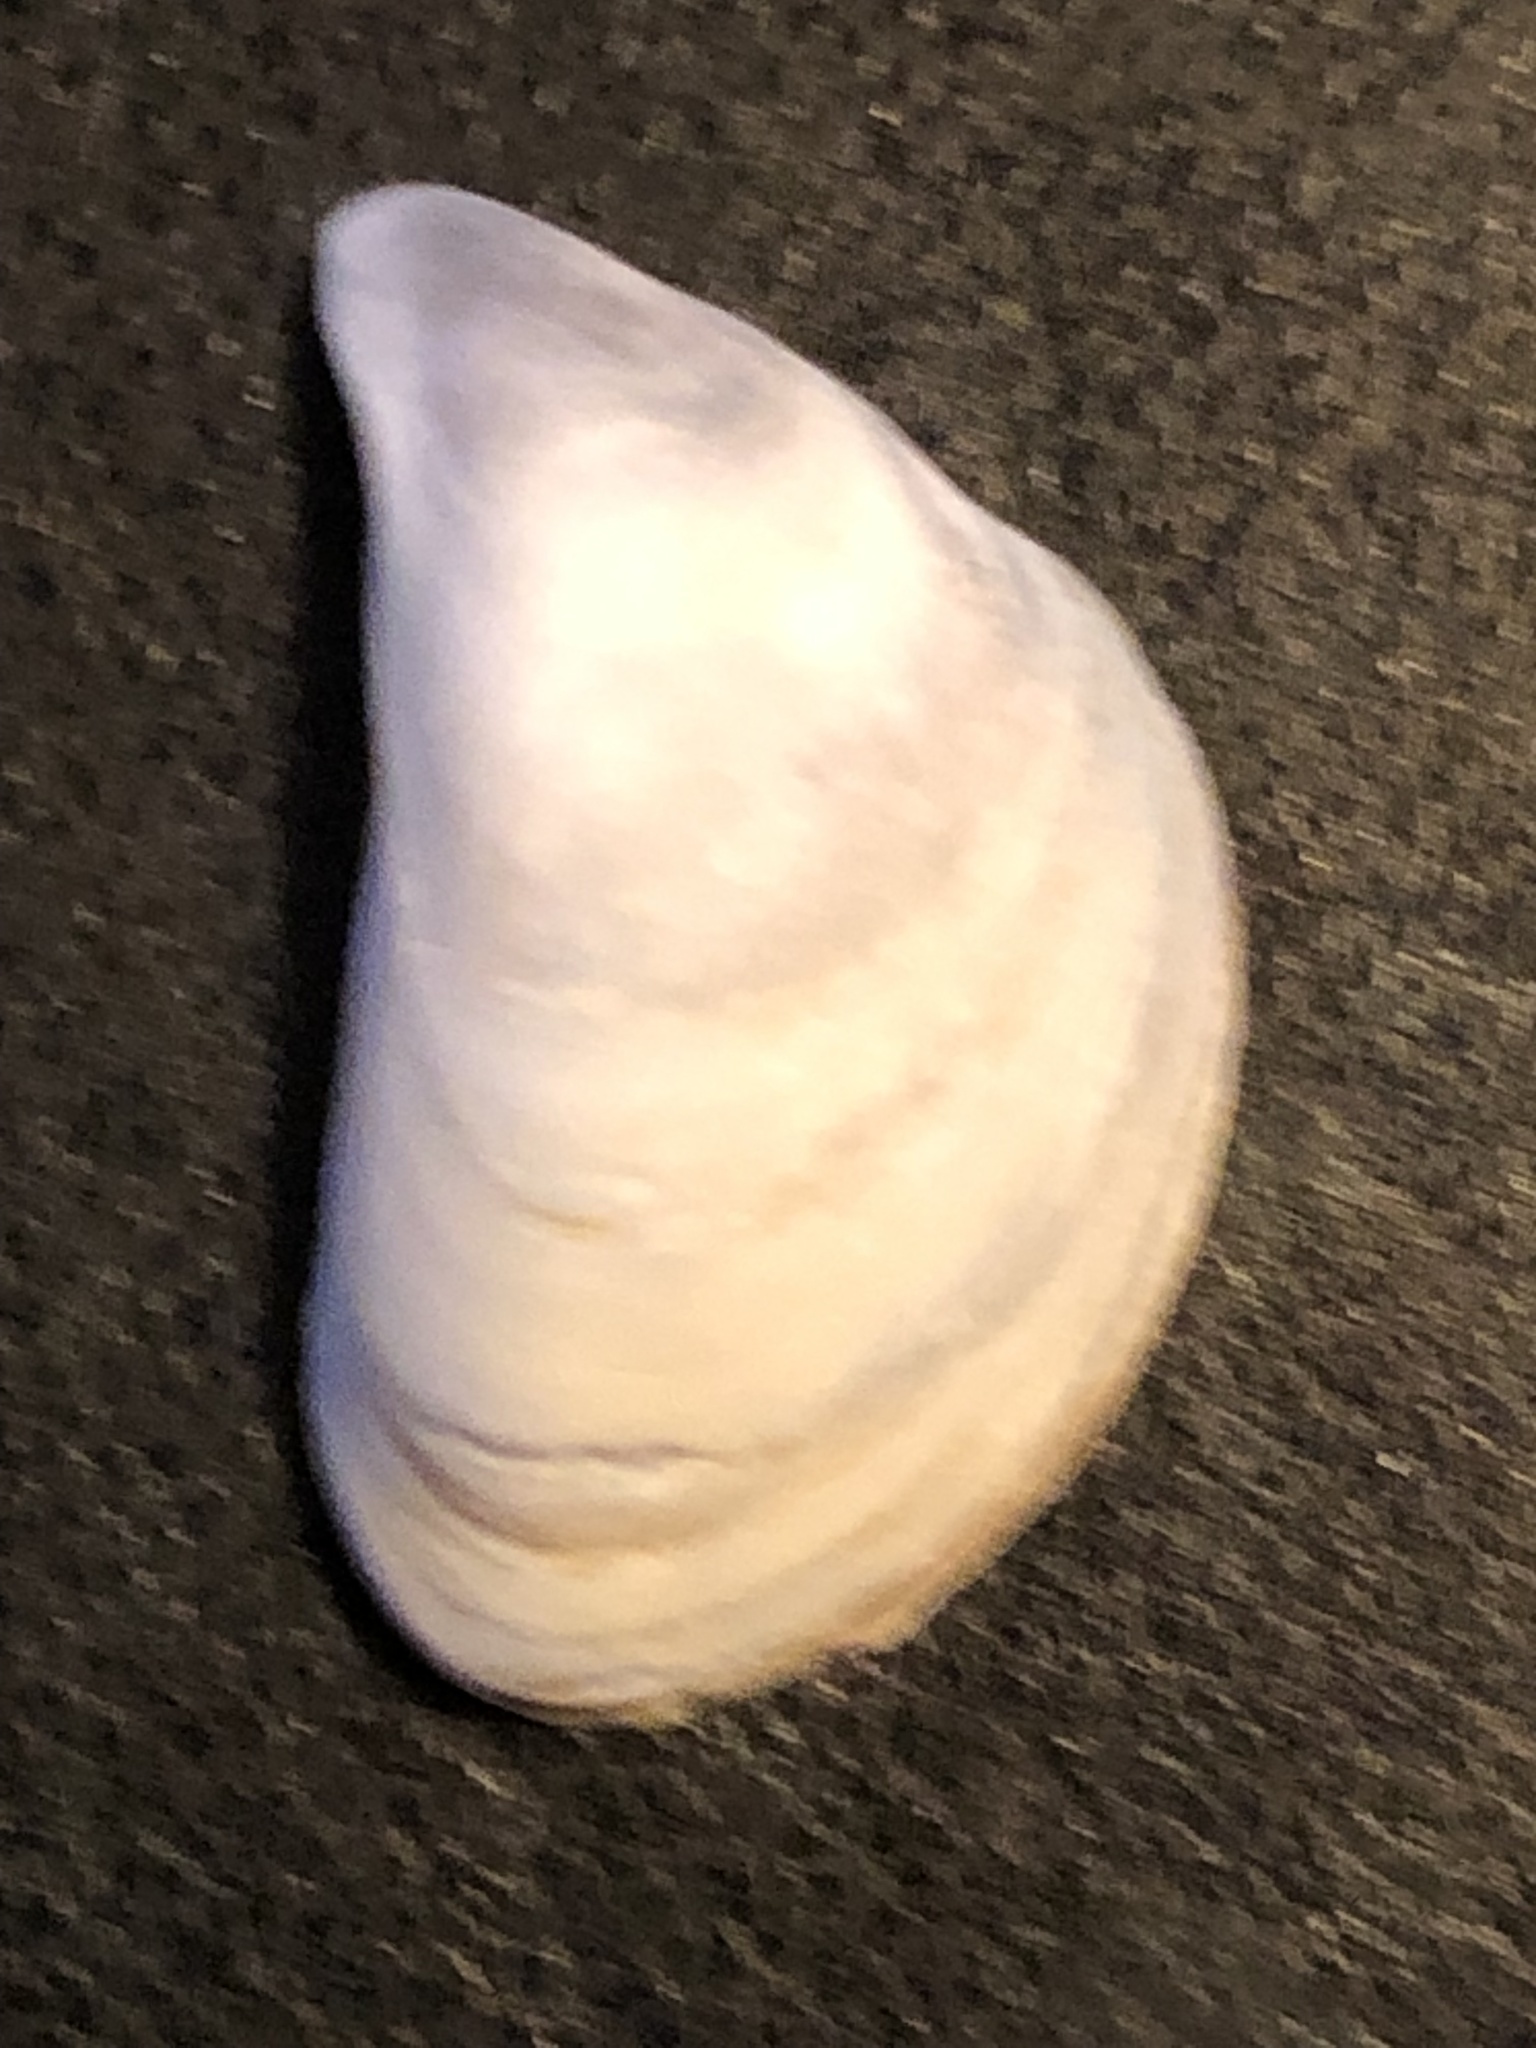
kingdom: Animalia
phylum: Mollusca
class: Bivalvia
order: Myida
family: Dreissenidae
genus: Dreissena
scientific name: Dreissena bugensis
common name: Quagga mussel
